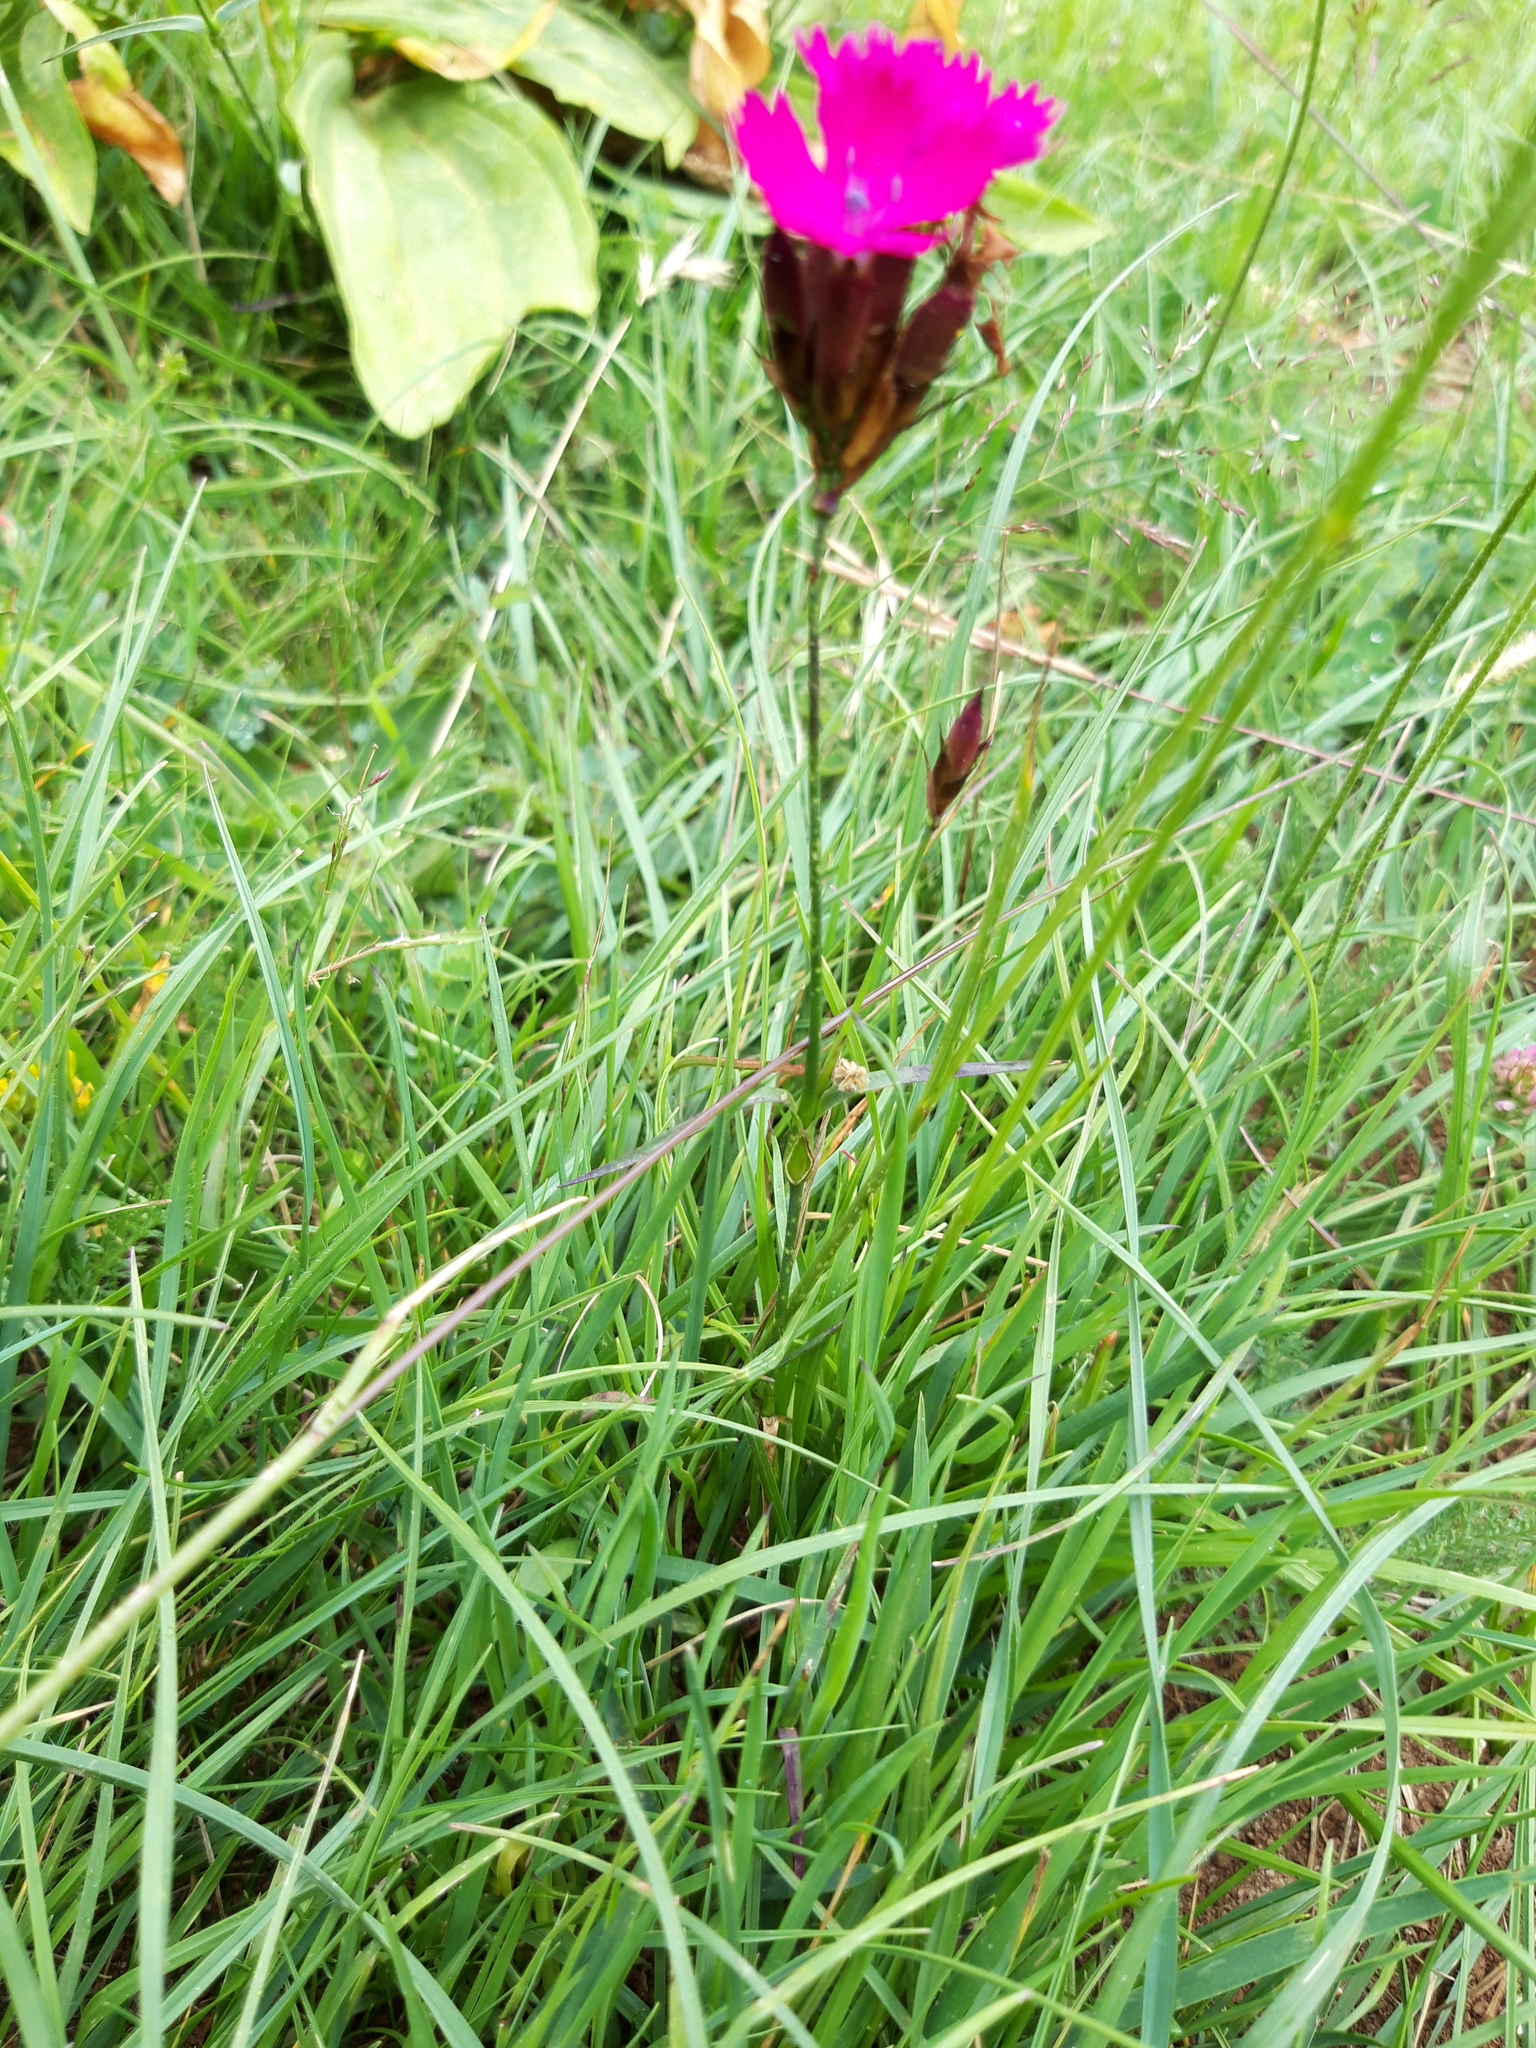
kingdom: Plantae
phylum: Tracheophyta
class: Magnoliopsida
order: Caryophyllales
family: Caryophyllaceae
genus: Dianthus
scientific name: Dianthus carthusianorum
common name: Carthusian pink
